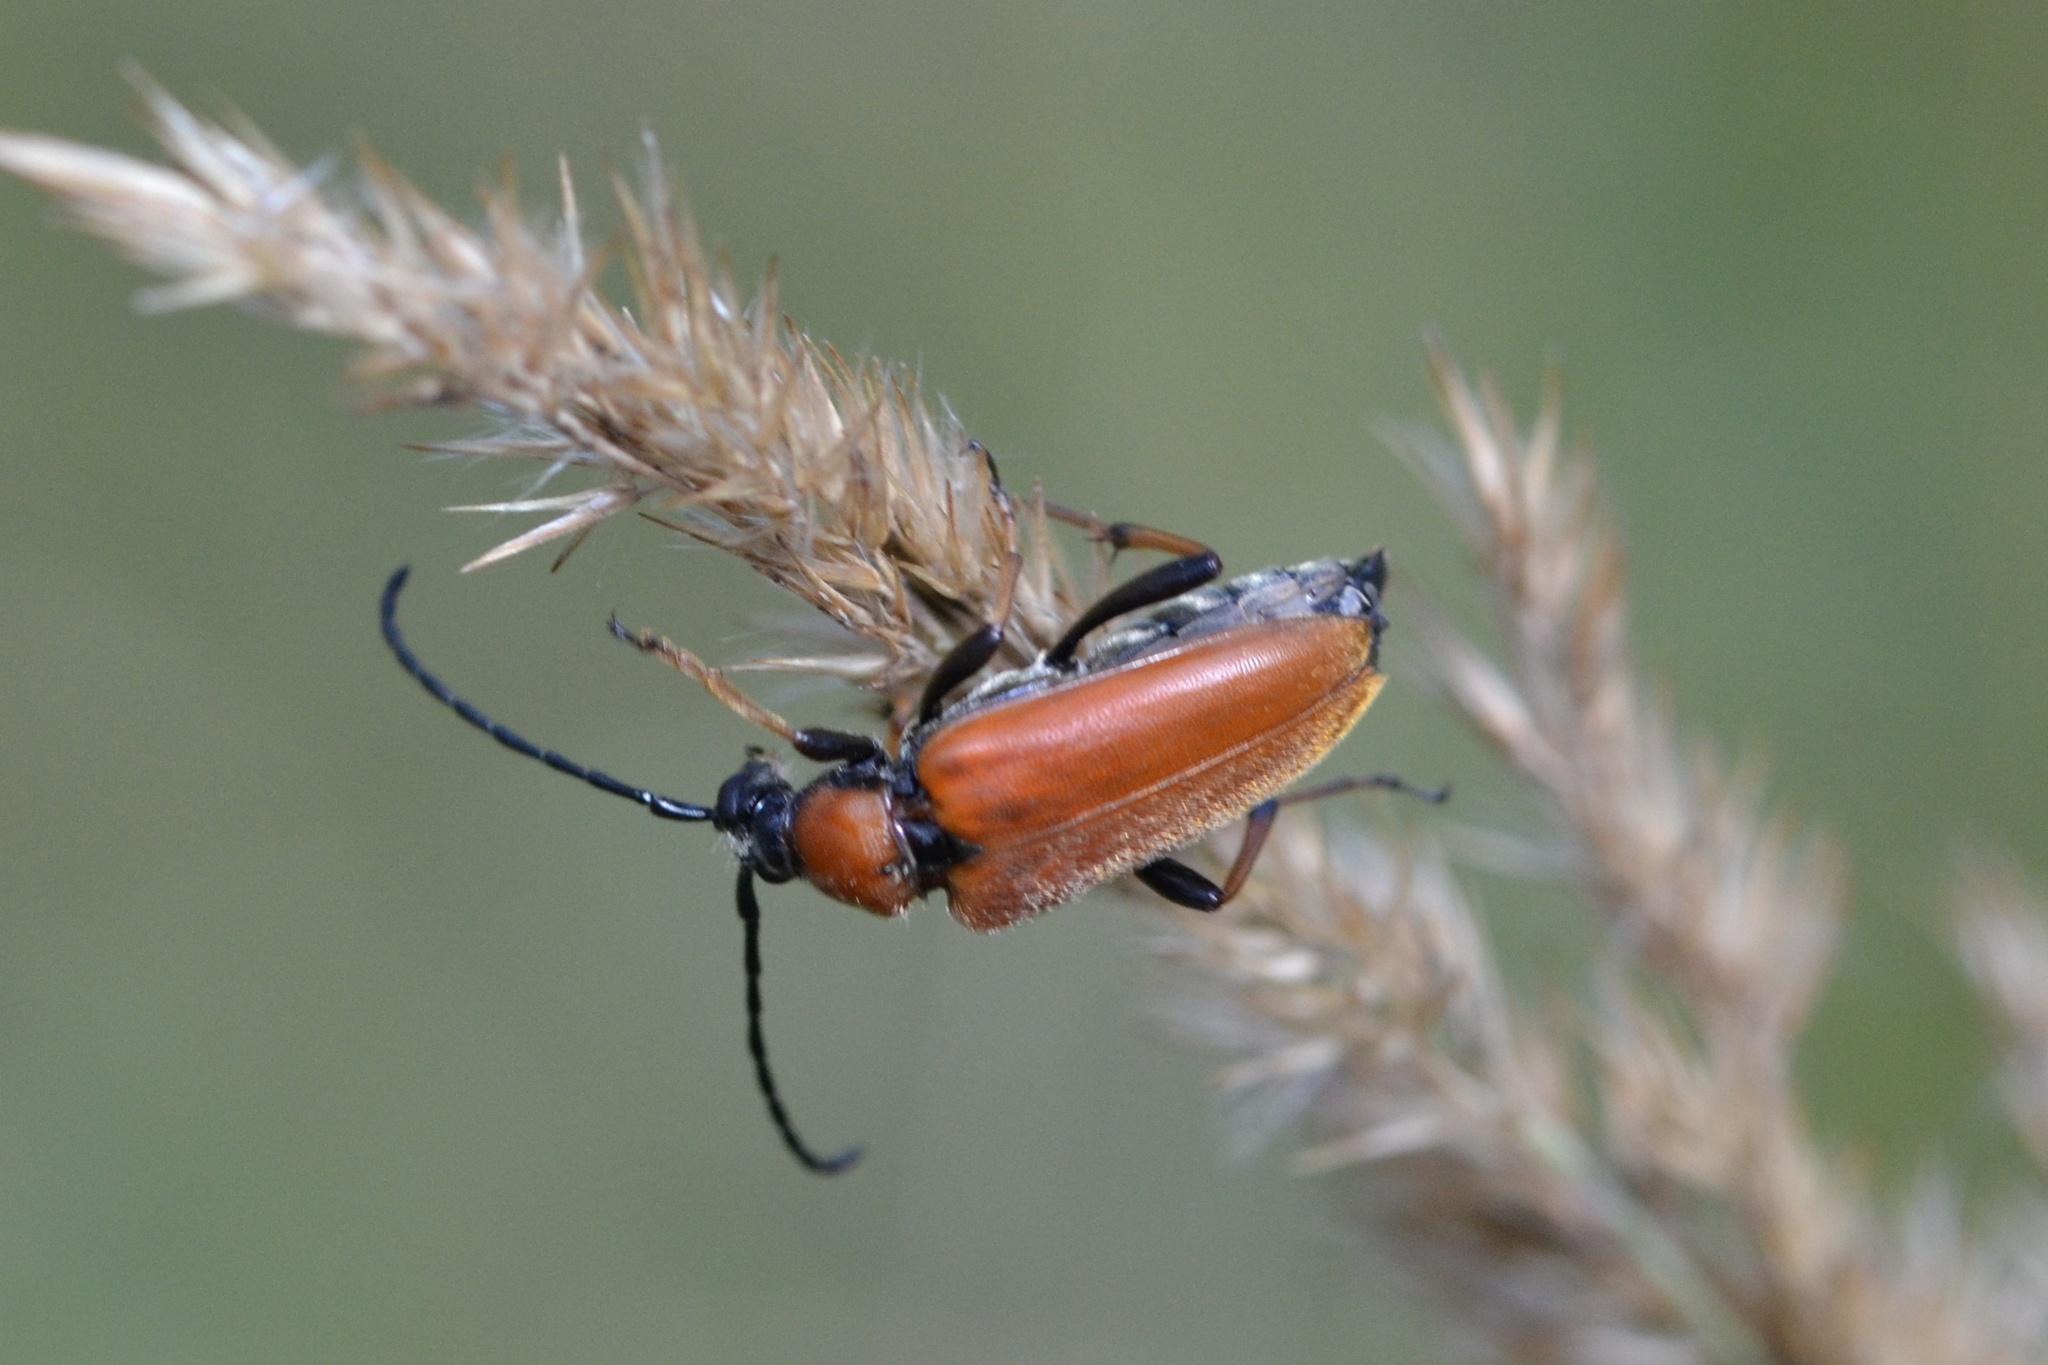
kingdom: Animalia
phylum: Arthropoda
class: Insecta
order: Coleoptera
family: Cerambycidae
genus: Stictoleptura
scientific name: Stictoleptura rubra
